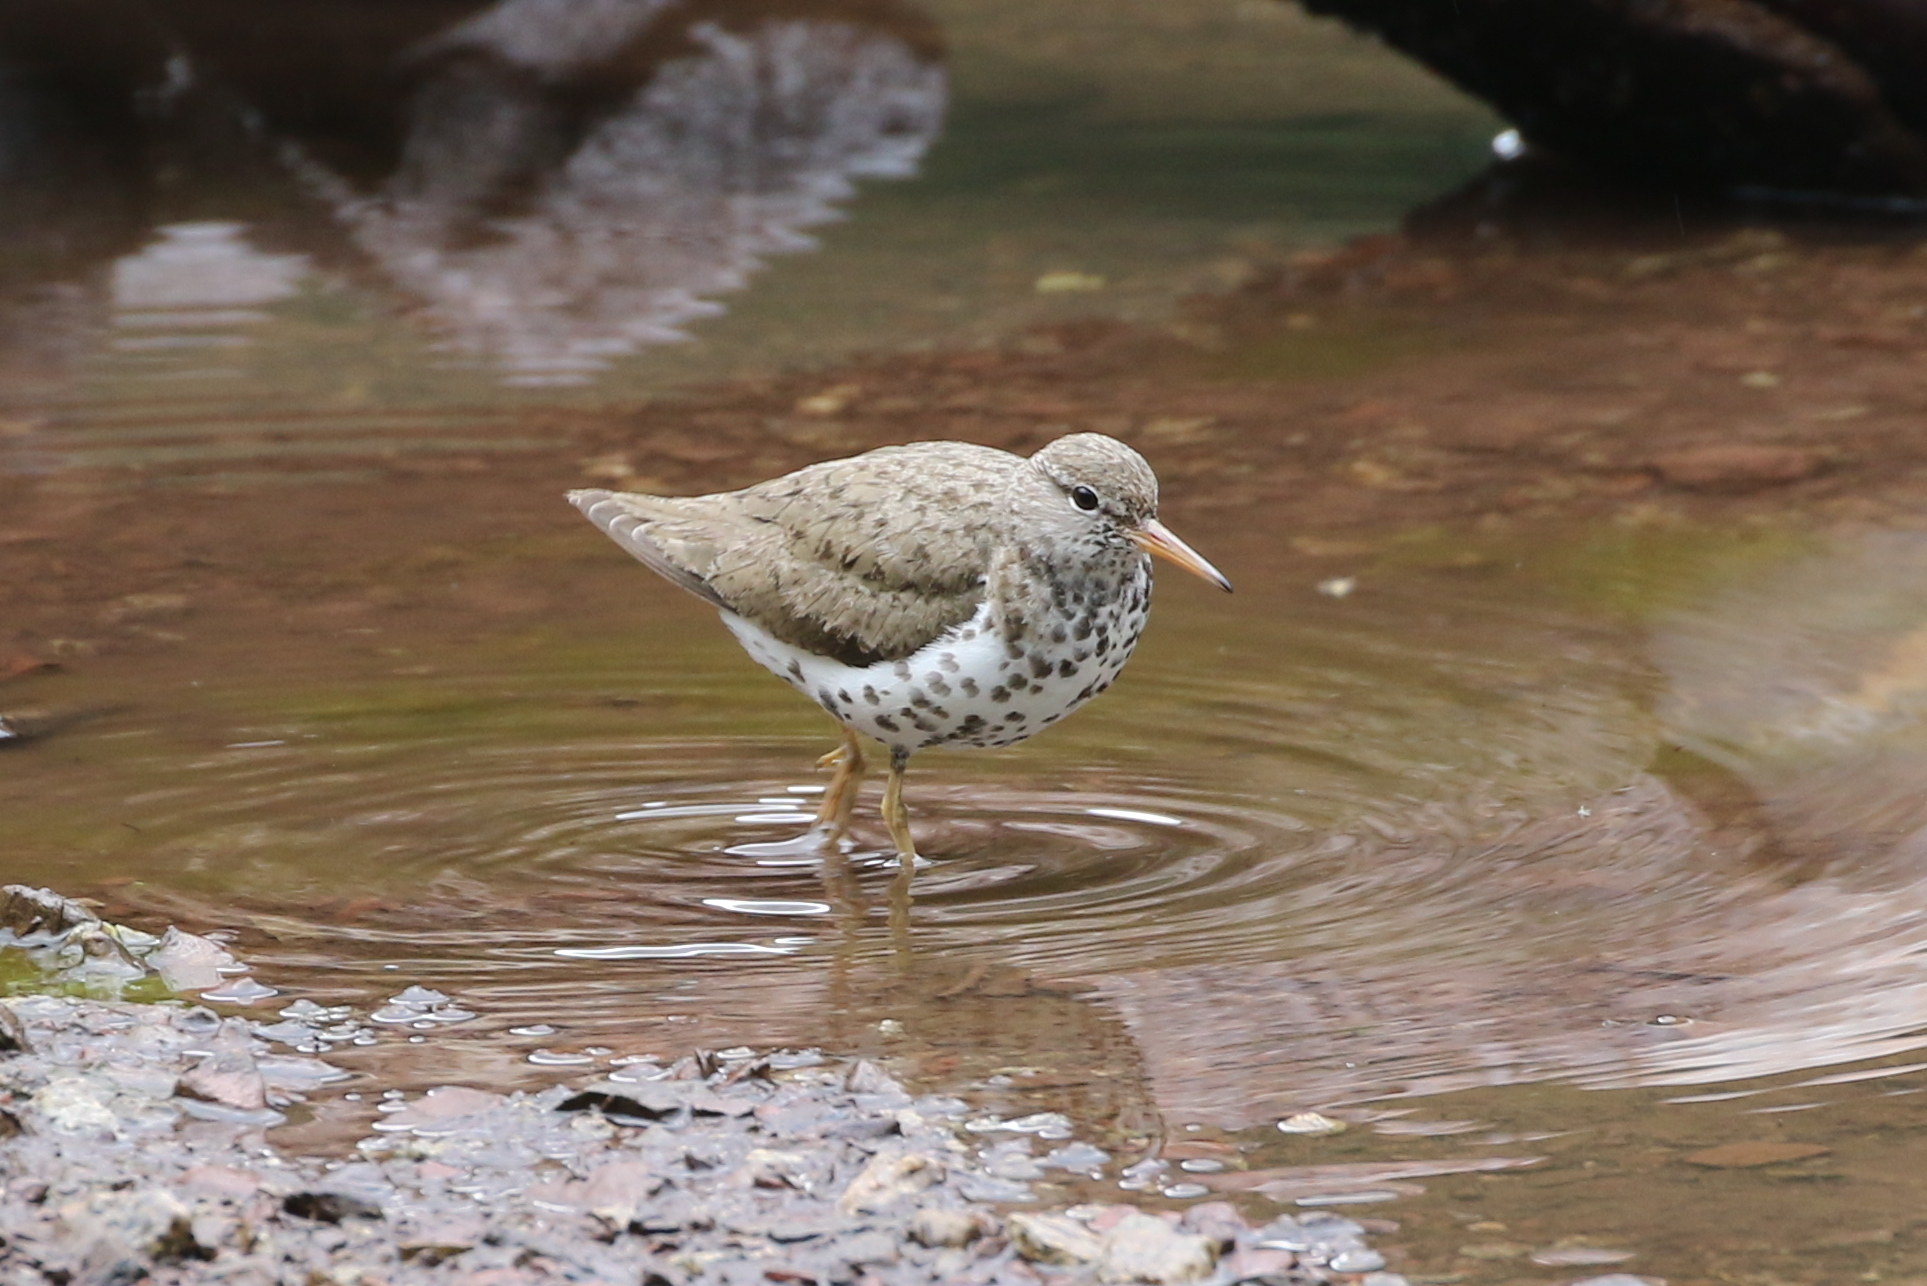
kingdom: Animalia
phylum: Chordata
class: Aves
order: Charadriiformes
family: Scolopacidae
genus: Actitis
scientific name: Actitis macularius
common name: Spotted sandpiper
